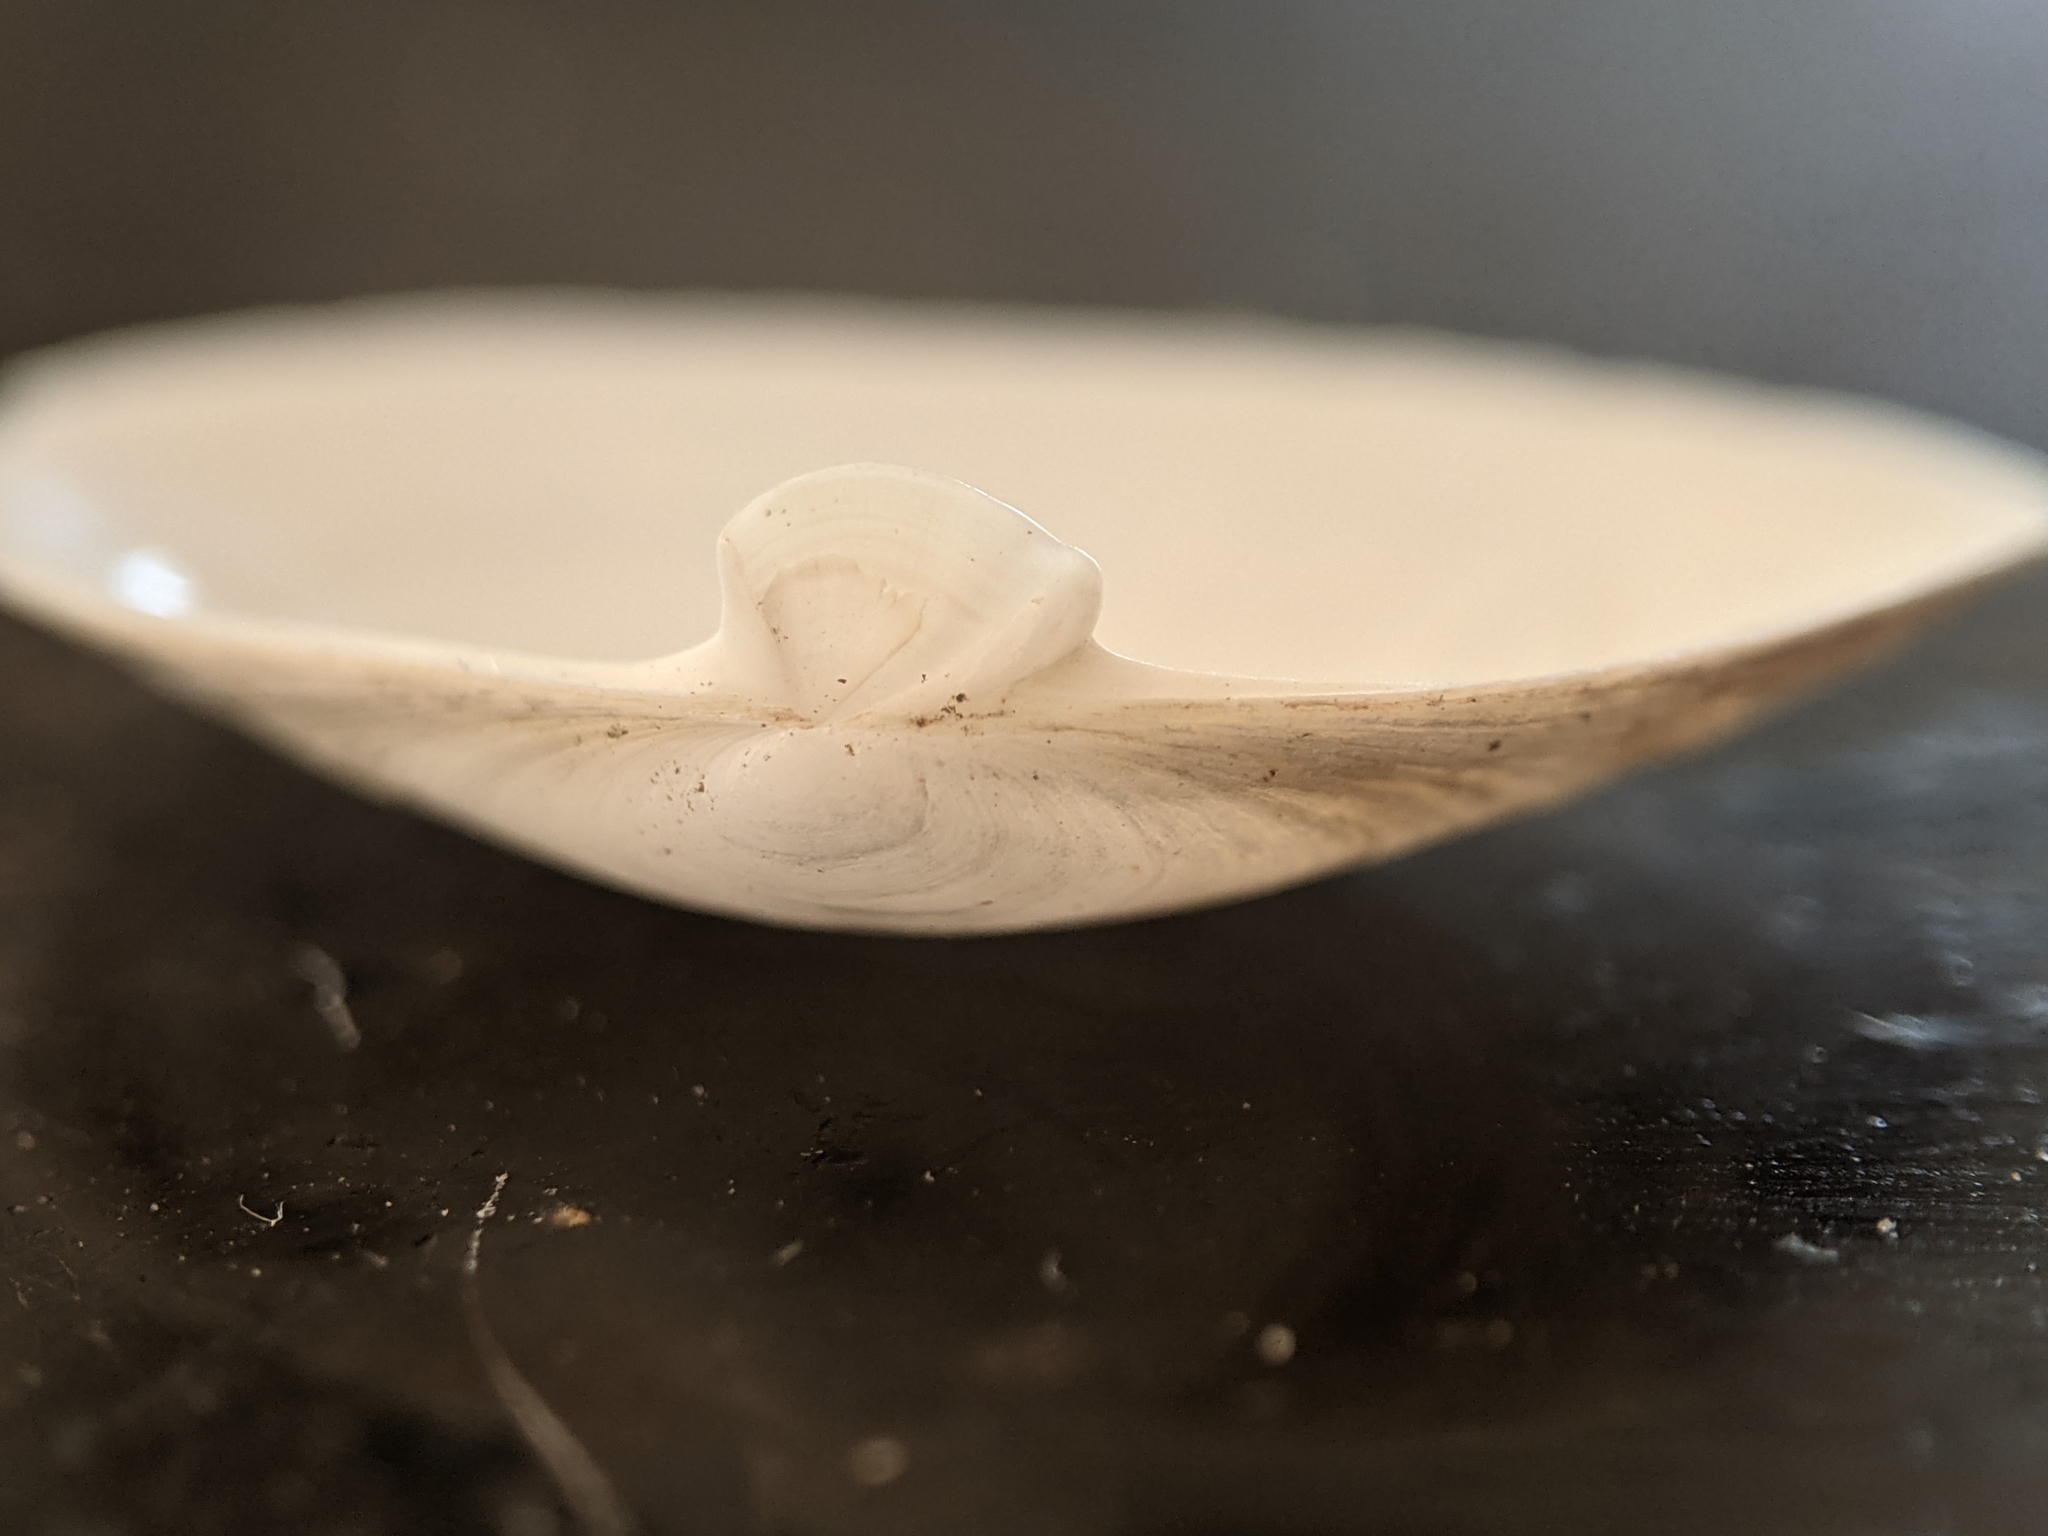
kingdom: Animalia
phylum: Mollusca
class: Bivalvia
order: Myida
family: Myidae
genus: Cryptomya
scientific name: Cryptomya californica
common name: California softshell clam
